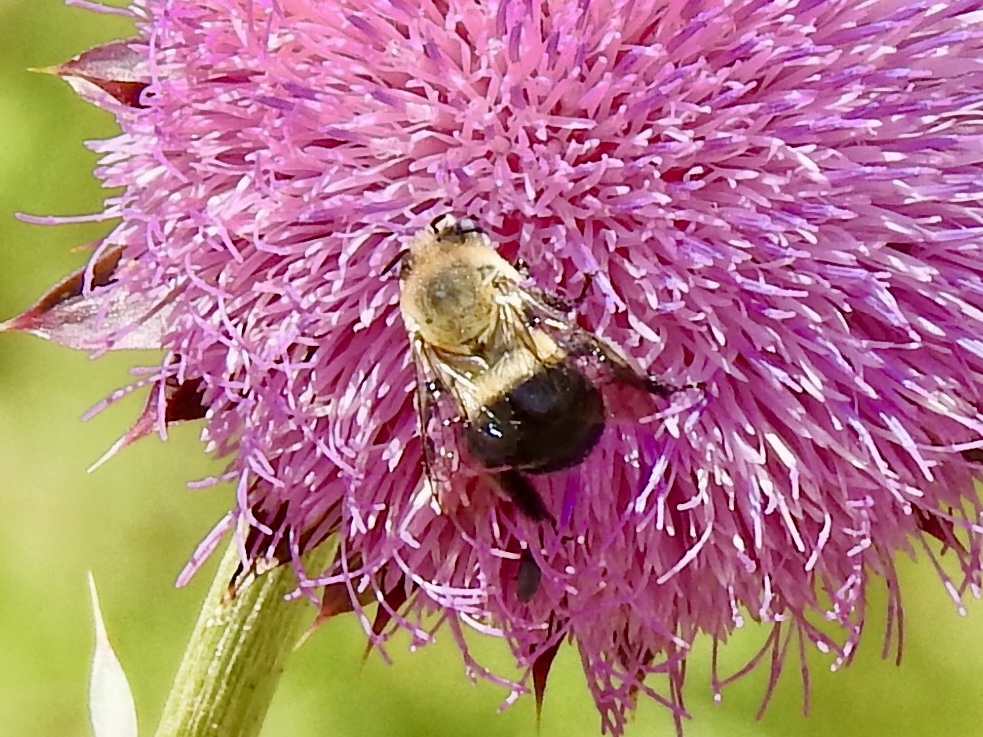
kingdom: Animalia
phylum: Arthropoda
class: Insecta
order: Hymenoptera
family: Apidae
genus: Anthophora
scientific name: Anthophora montana
